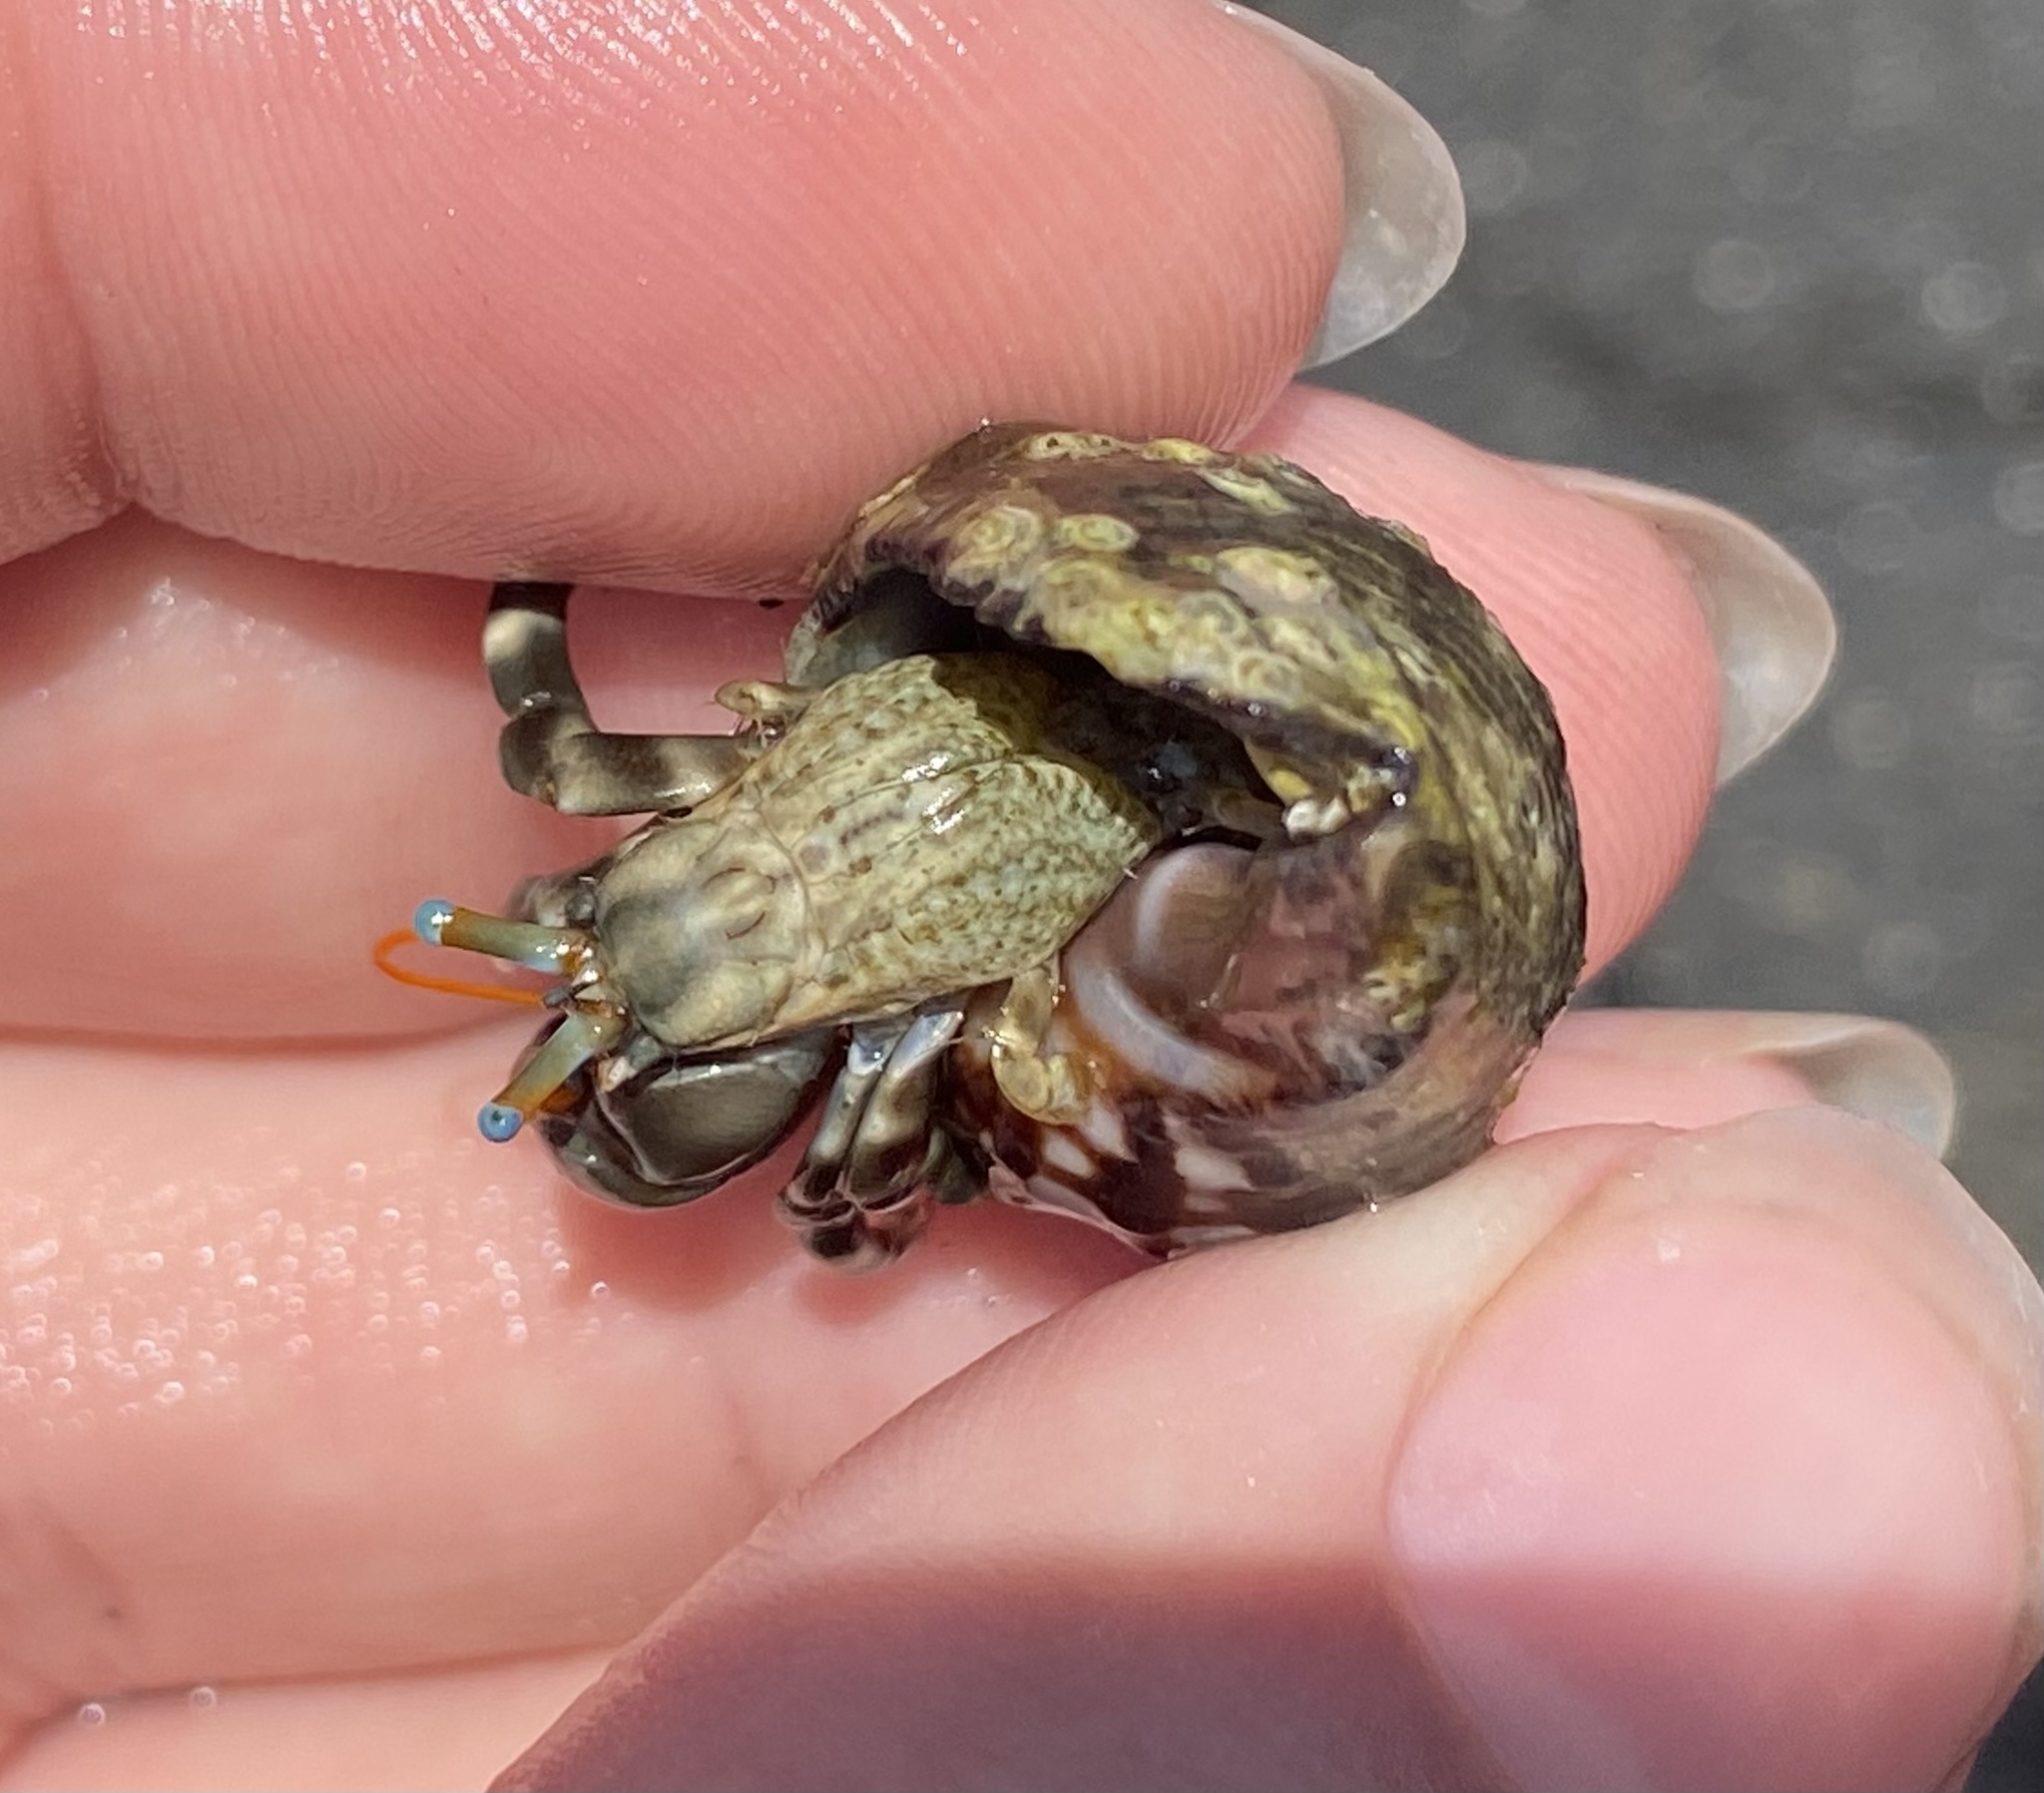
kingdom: Animalia
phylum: Arthropoda
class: Malacostraca
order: Decapoda
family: Diogenidae
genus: Calcinus
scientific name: Calcinus seurati
